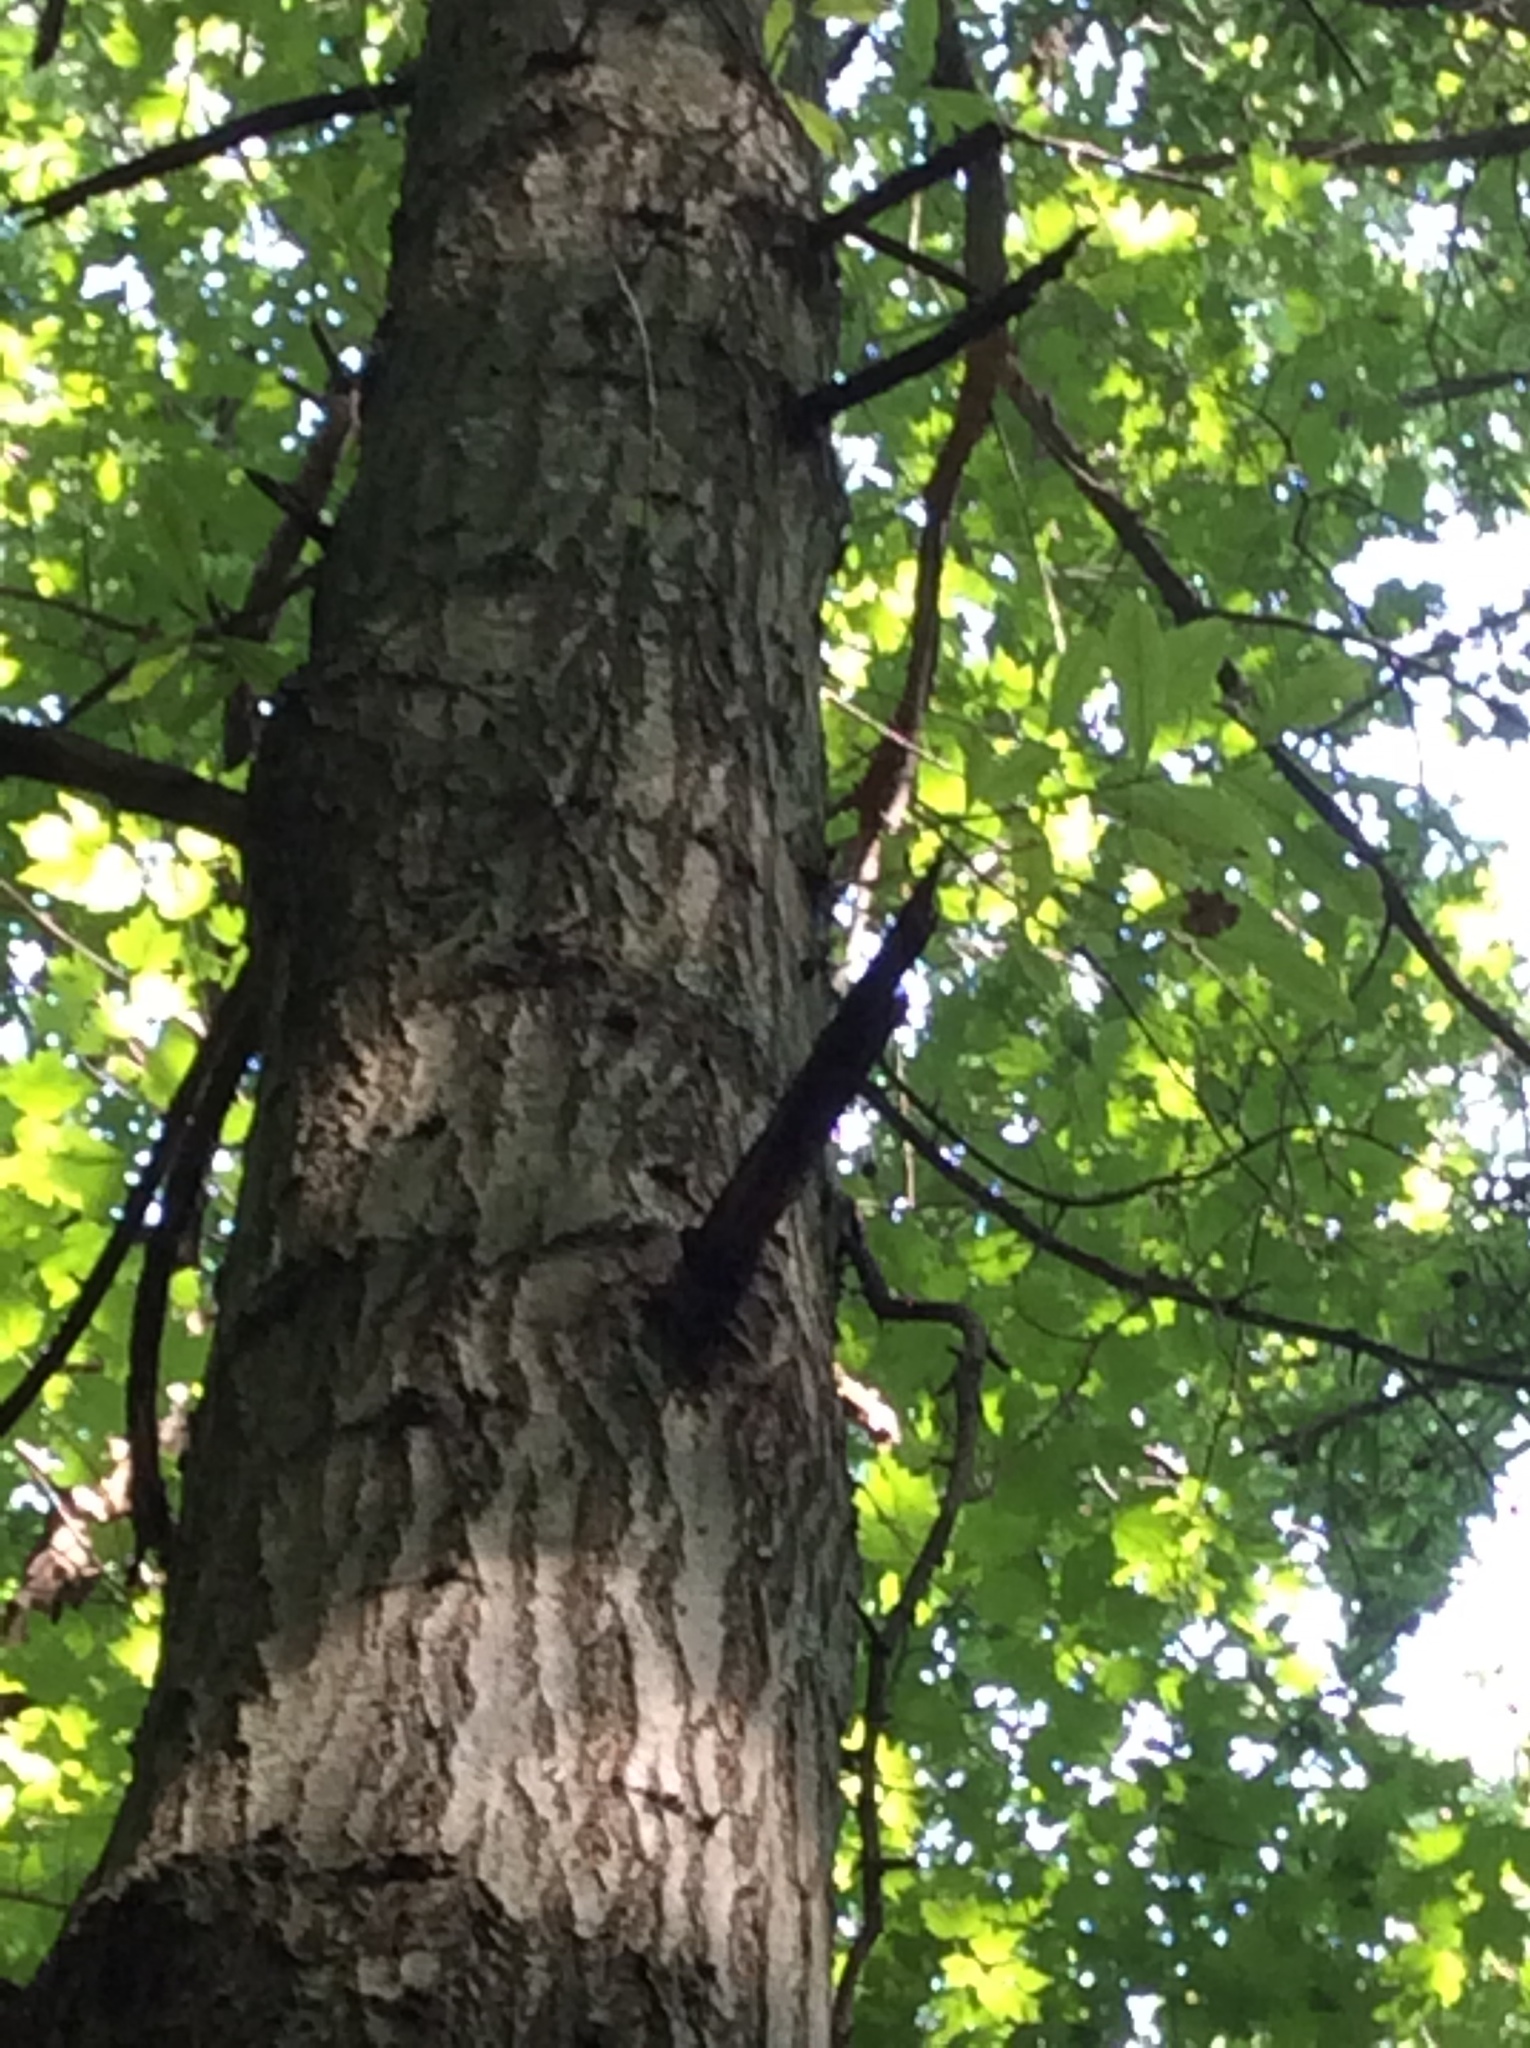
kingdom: Plantae
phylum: Tracheophyta
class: Magnoliopsida
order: Fagales
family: Fagaceae
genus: Quercus
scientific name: Quercus imbricaria
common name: Shingle oak
